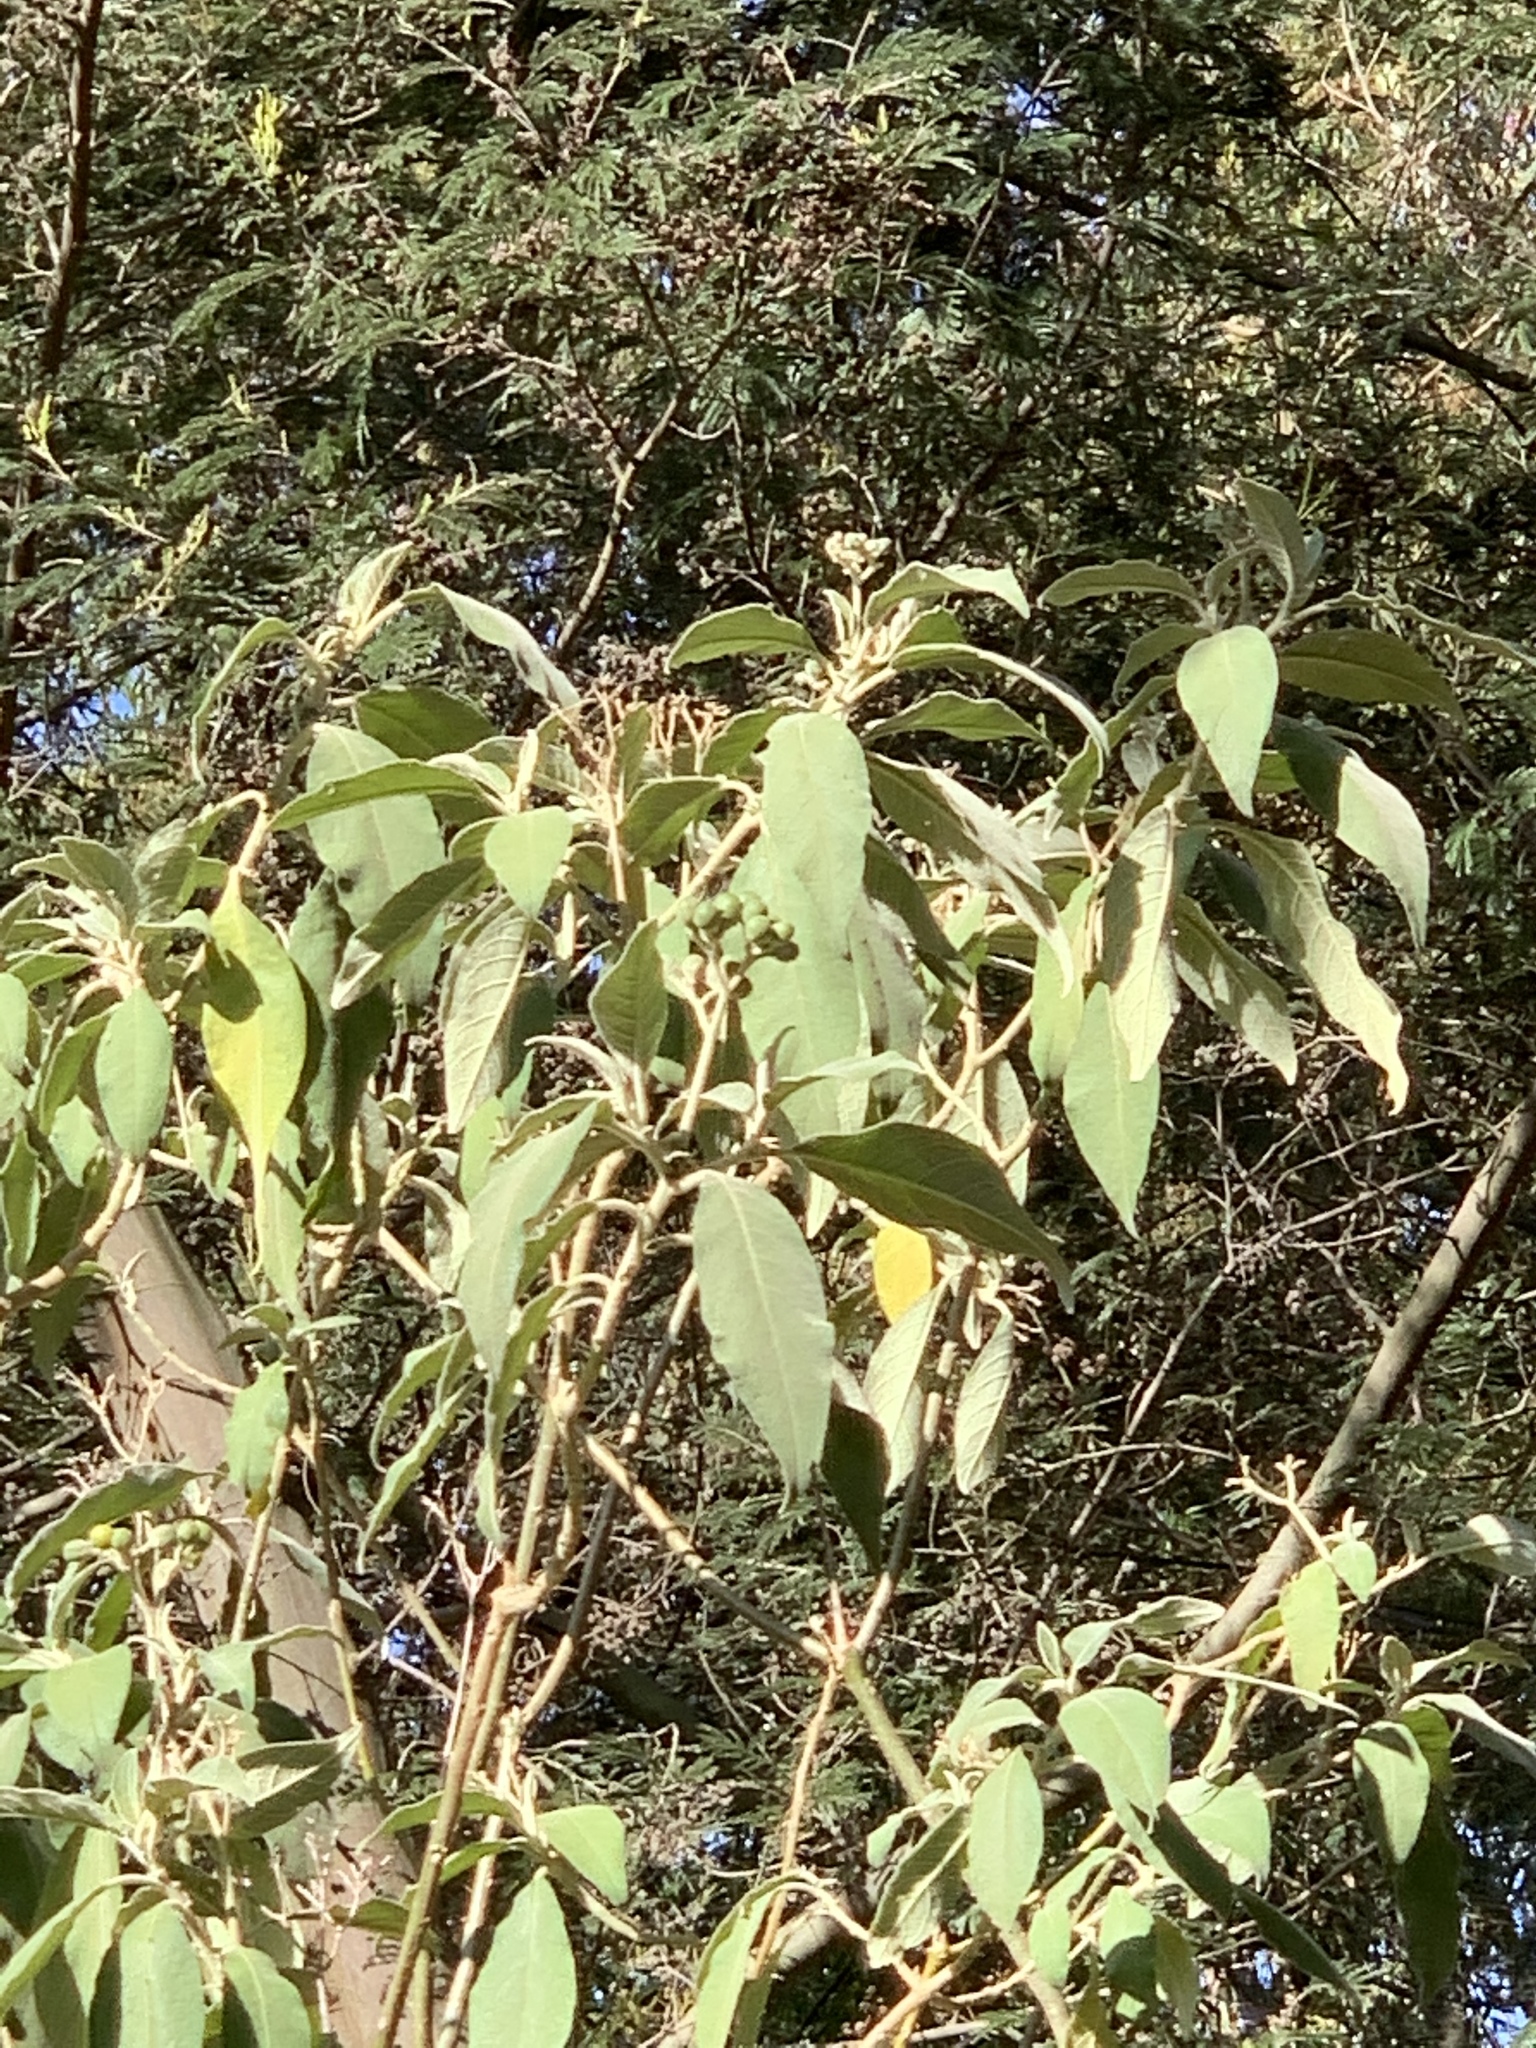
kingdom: Plantae
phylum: Tracheophyta
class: Magnoliopsida
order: Solanales
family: Solanaceae
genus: Solanum
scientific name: Solanum mauritianum
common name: Earleaf nightshade
